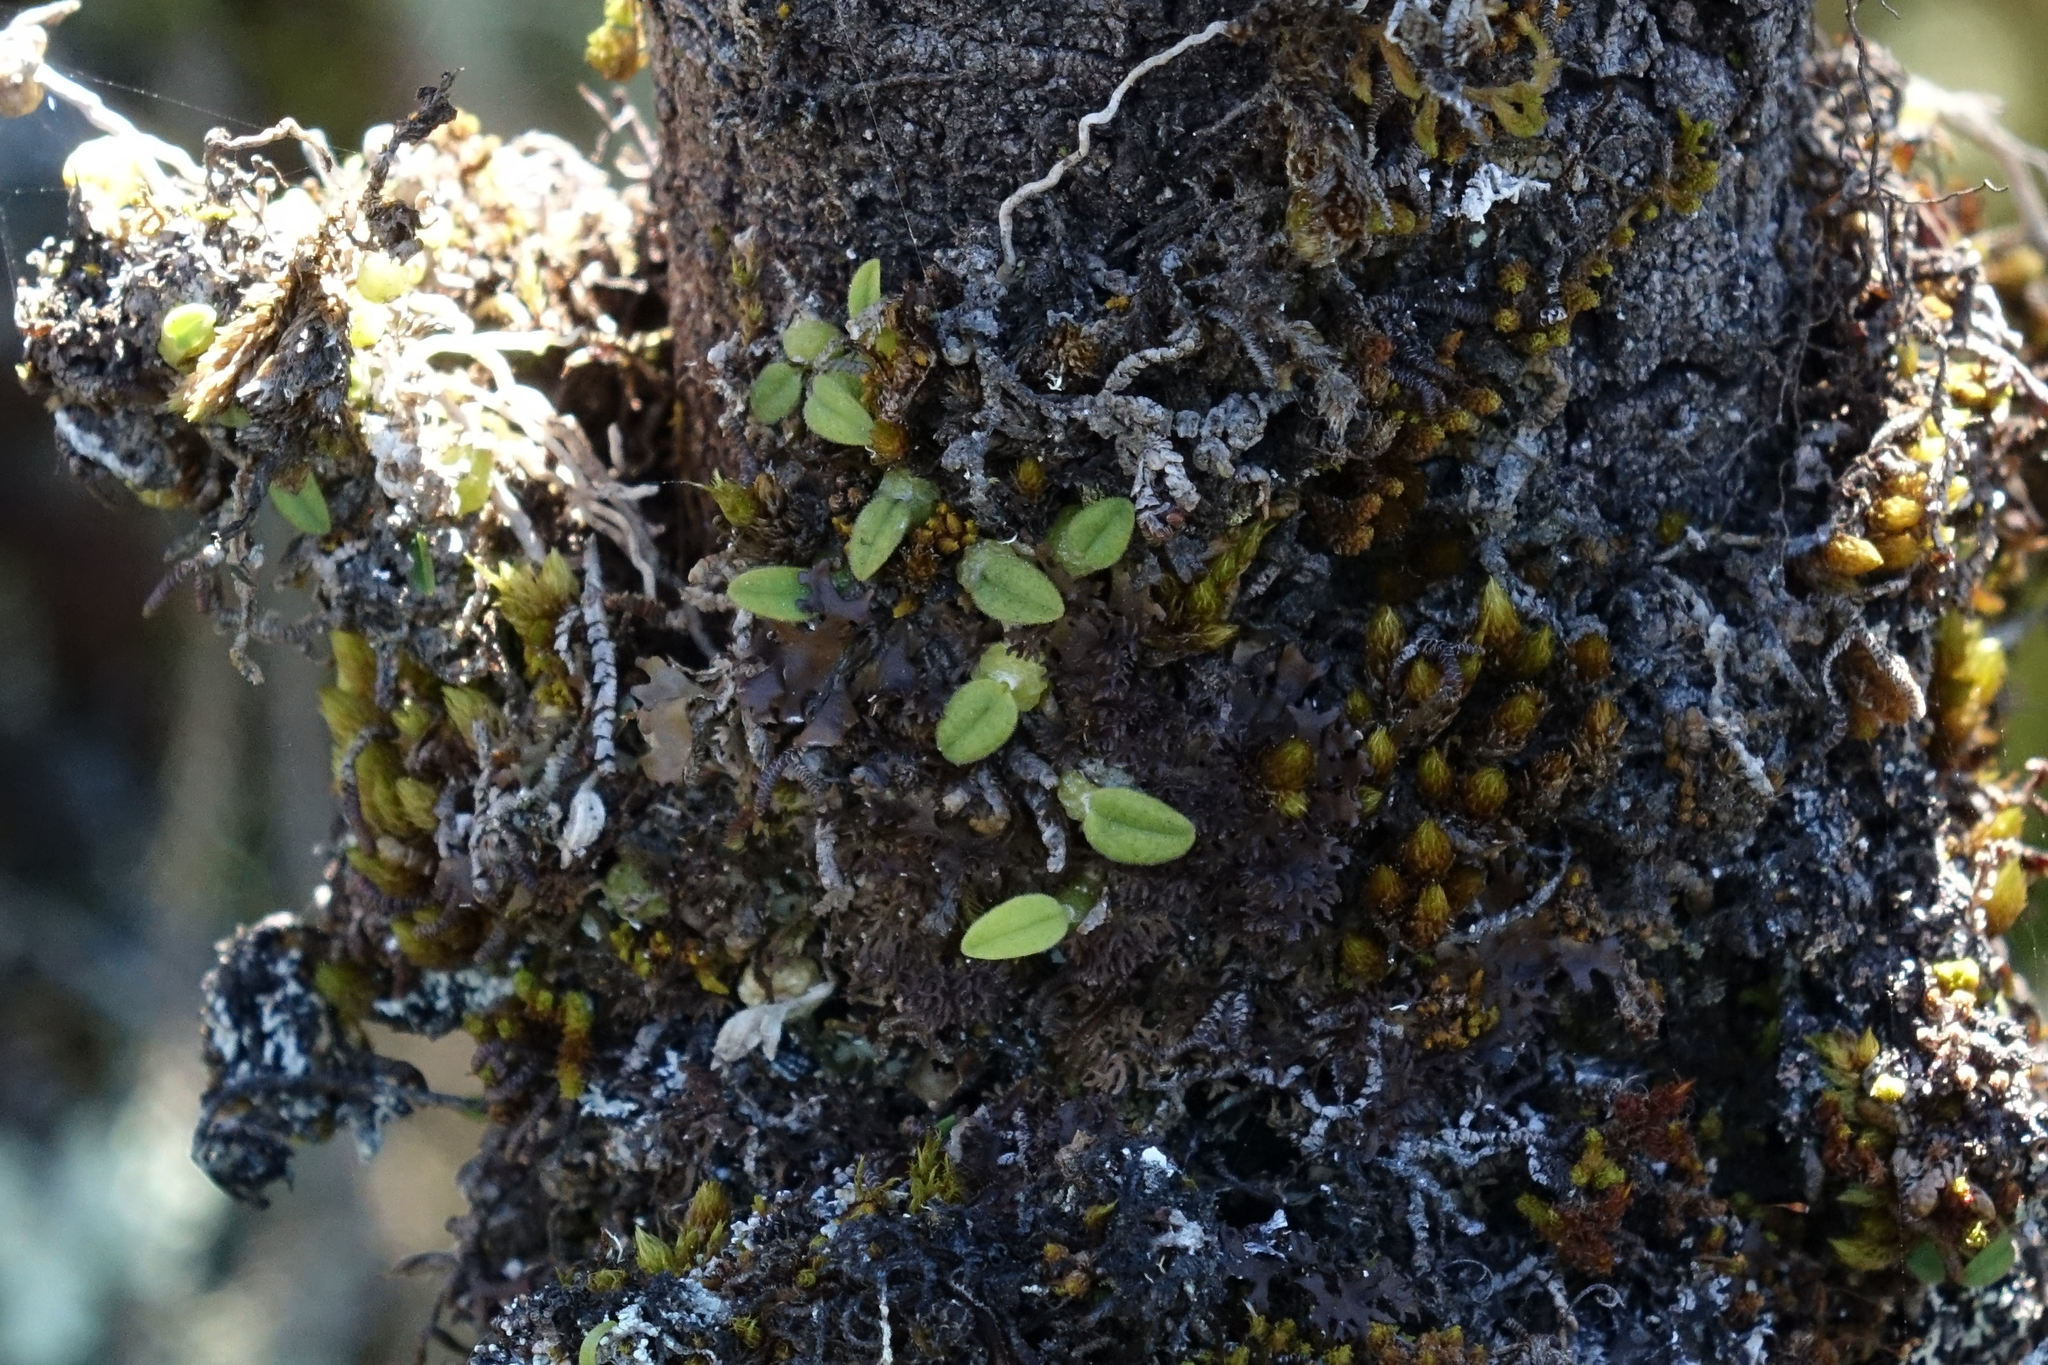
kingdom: Plantae
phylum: Tracheophyta
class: Liliopsida
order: Asparagales
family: Orchidaceae
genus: Bulbophyllum
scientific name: Bulbophyllum pygmaeum
